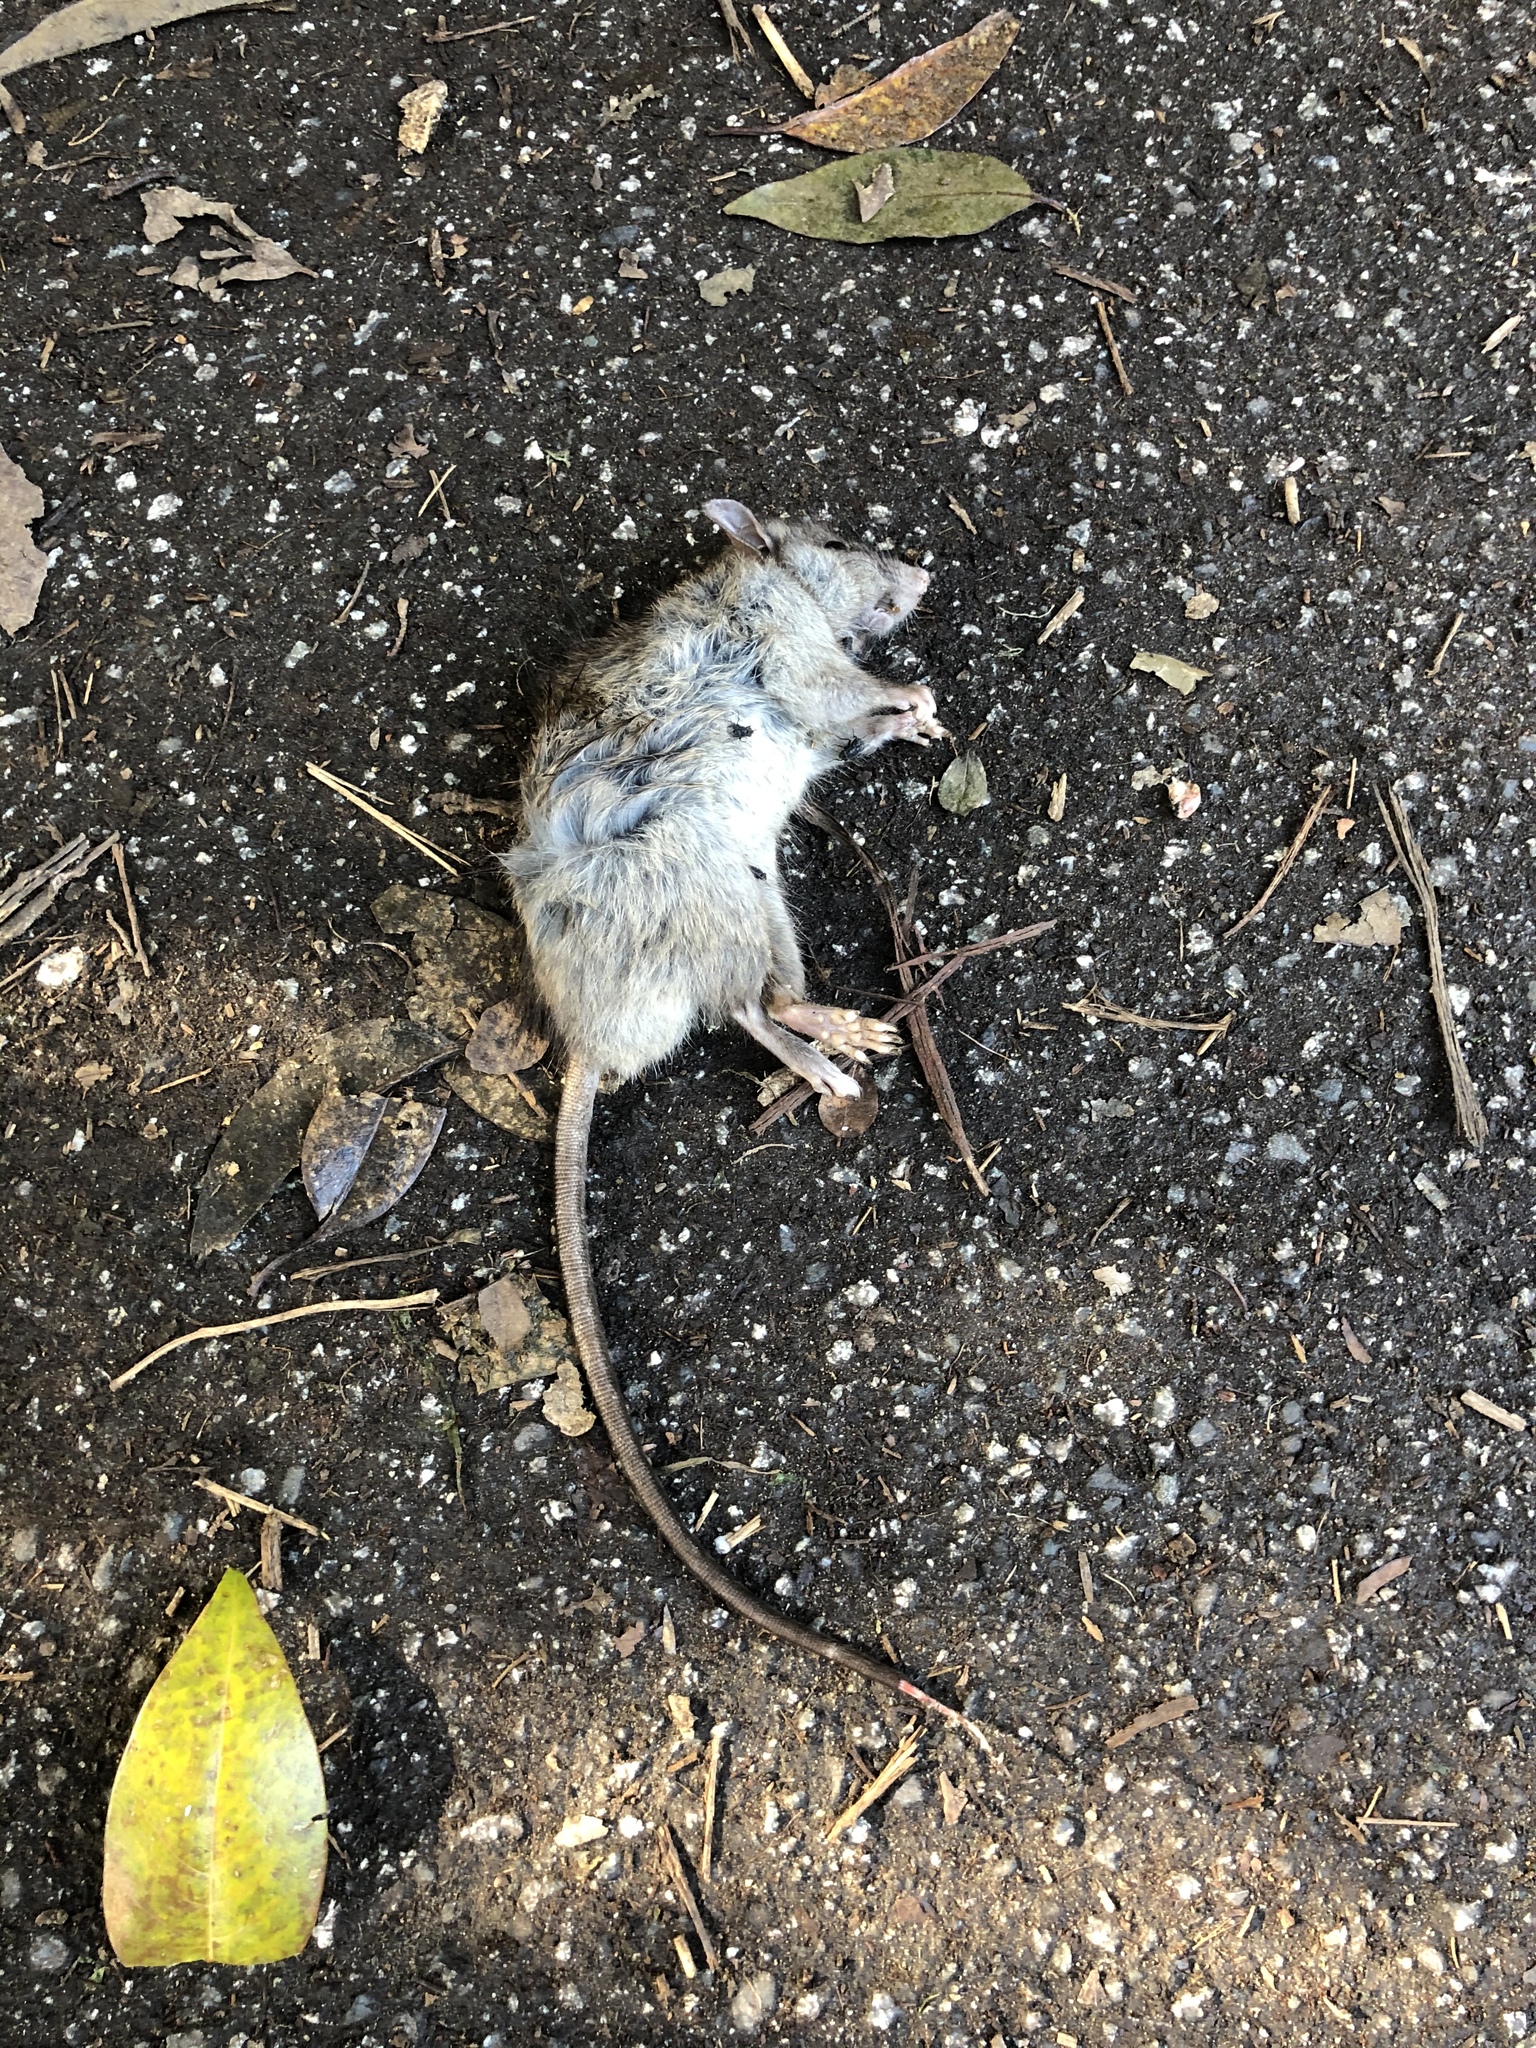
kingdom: Animalia
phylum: Chordata
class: Mammalia
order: Rodentia
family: Muridae
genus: Rattus
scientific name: Rattus rattus
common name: Black rat
